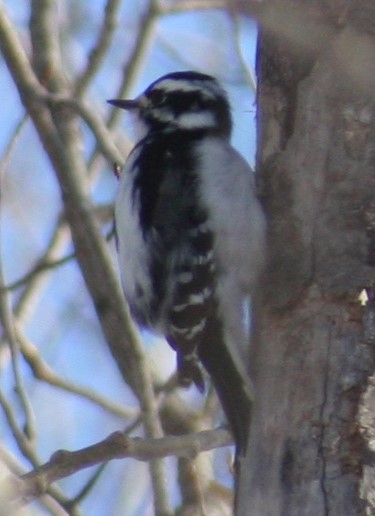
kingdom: Animalia
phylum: Chordata
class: Aves
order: Piciformes
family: Picidae
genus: Dryobates
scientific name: Dryobates pubescens
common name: Downy woodpecker
